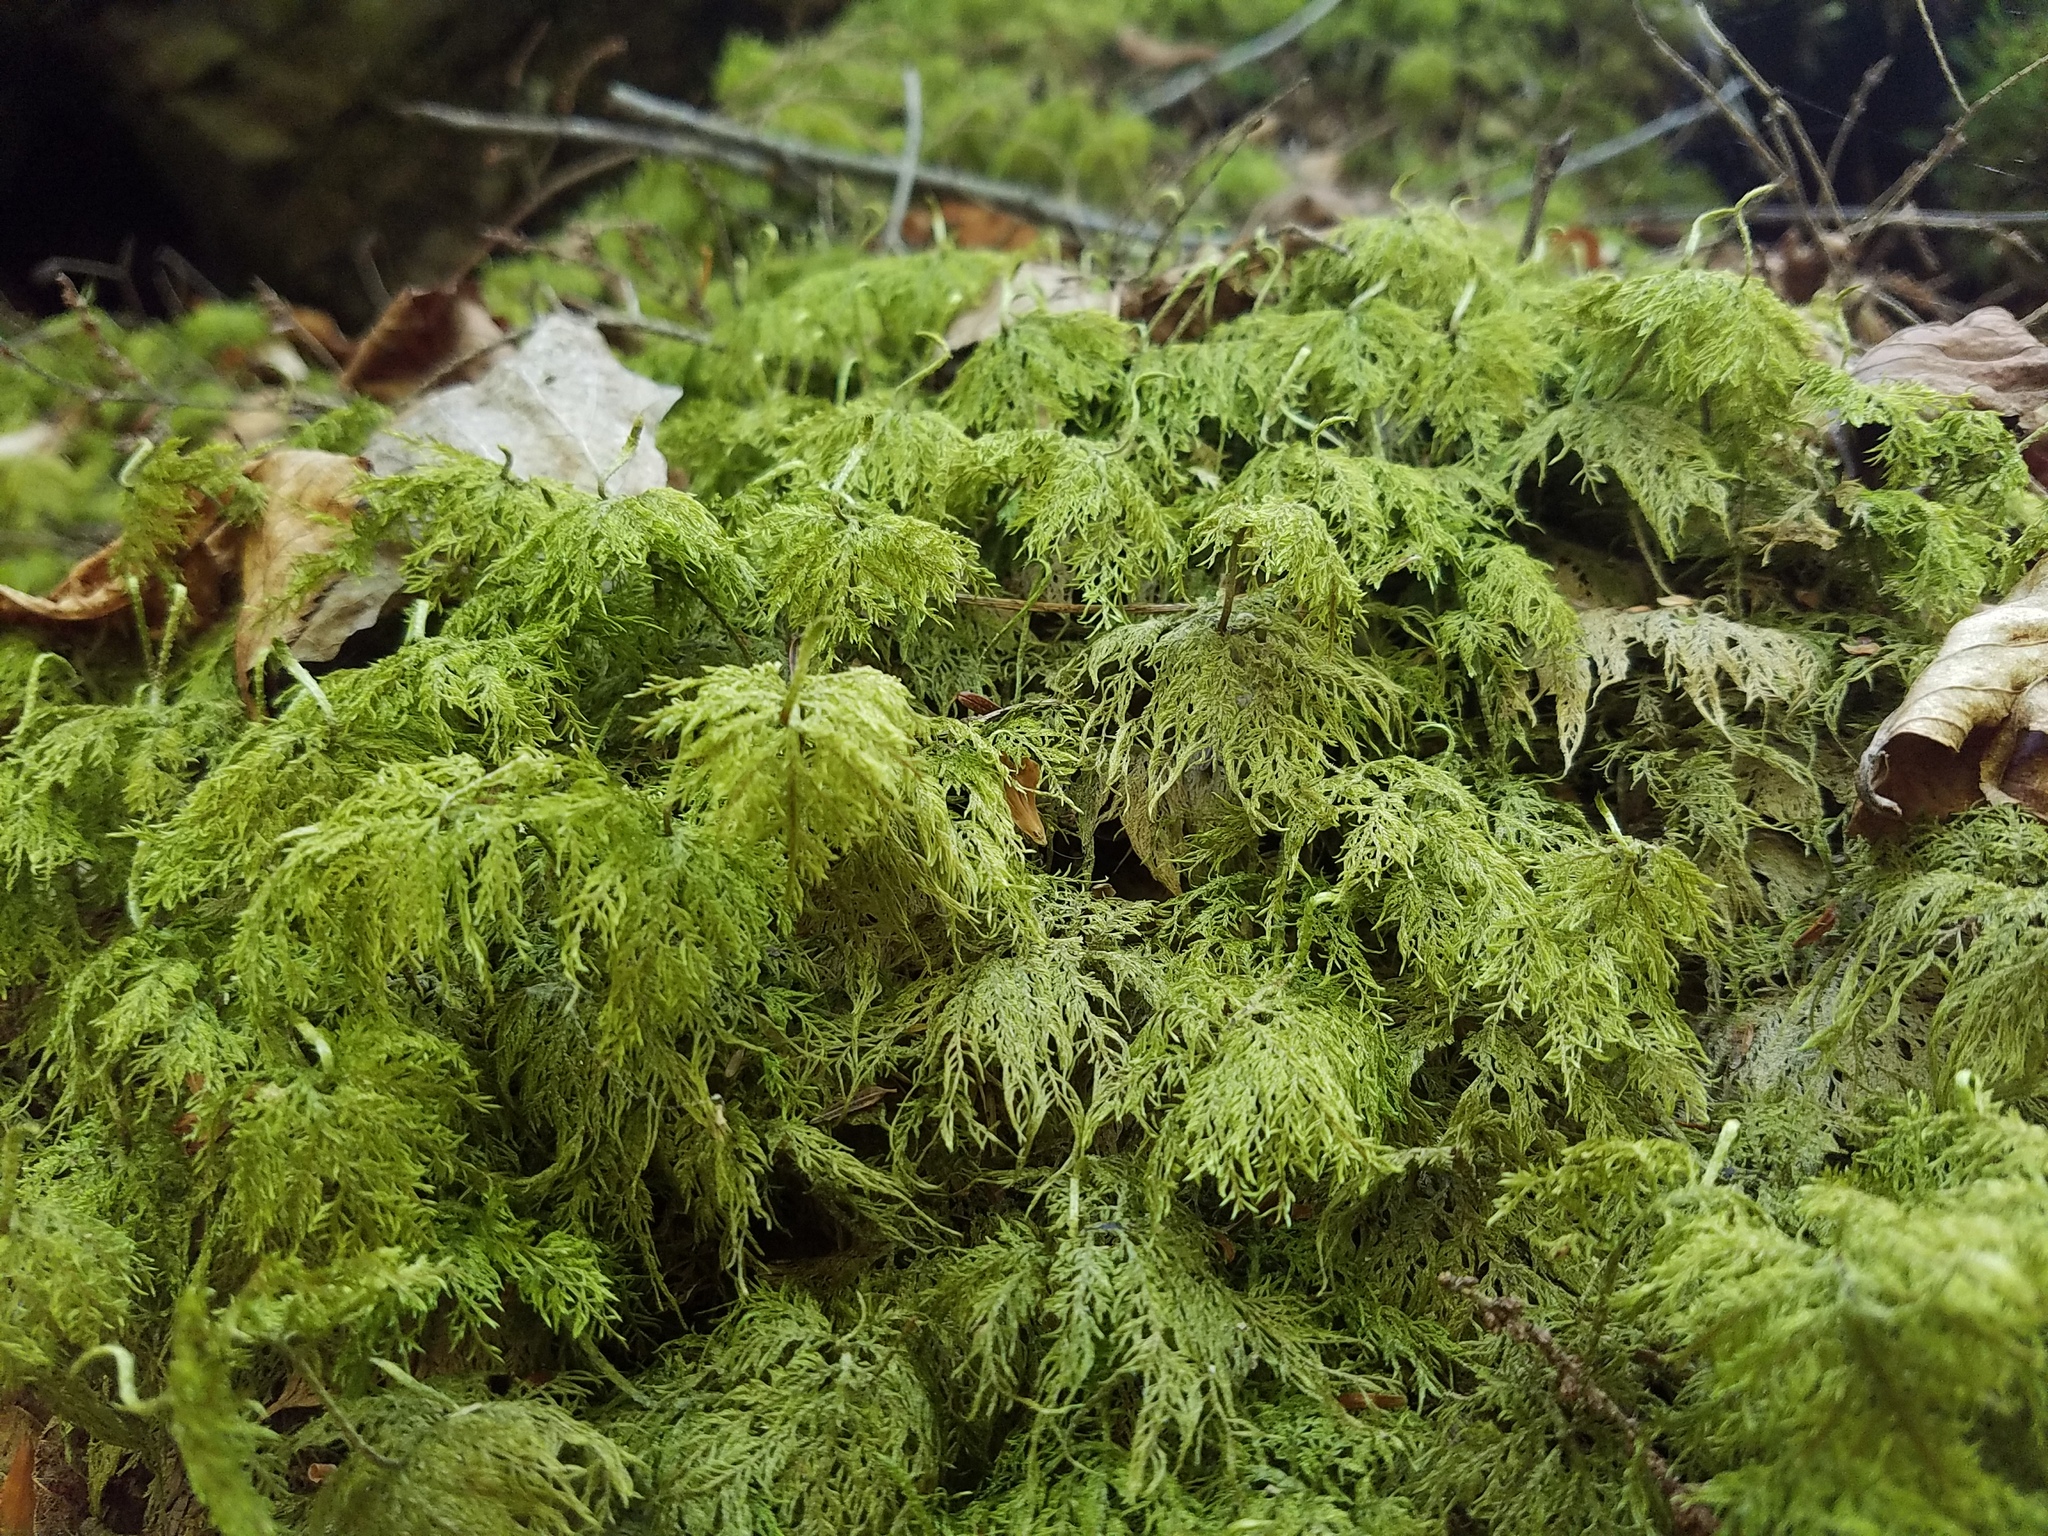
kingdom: Plantae
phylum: Bryophyta
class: Bryopsida
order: Hypnales
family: Hylocomiaceae
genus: Hylocomium
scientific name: Hylocomium splendens
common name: Stairstep moss
